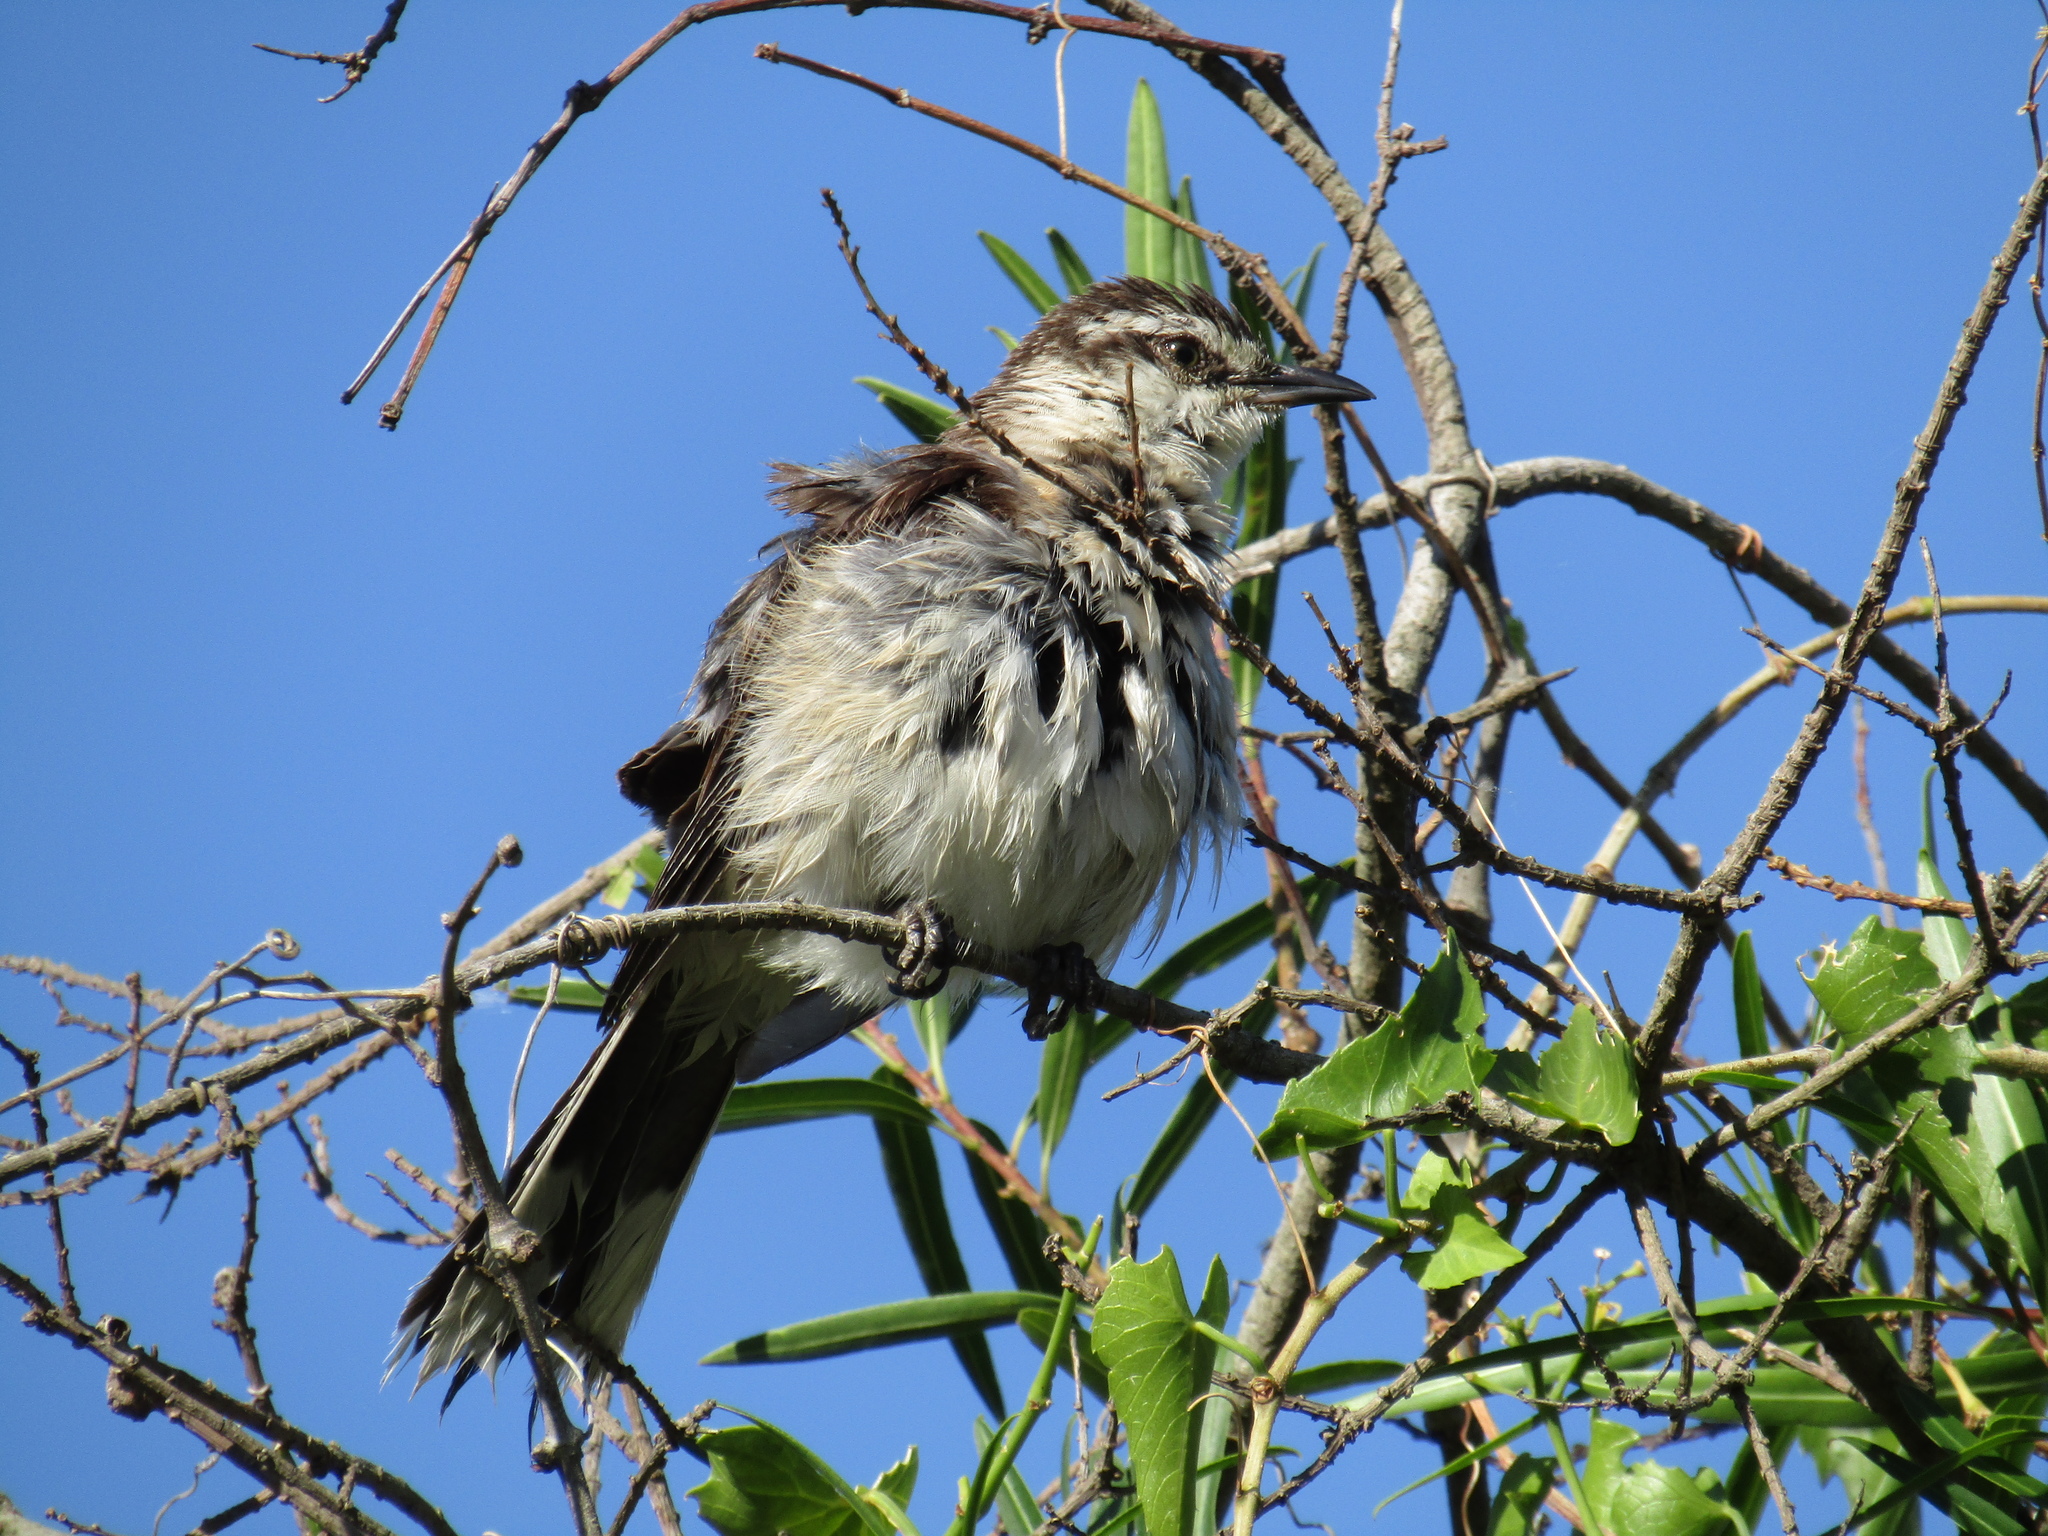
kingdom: Animalia
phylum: Chordata
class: Aves
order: Passeriformes
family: Mimidae
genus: Mimus
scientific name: Mimus saturninus
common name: Chalk-browed mockingbird
